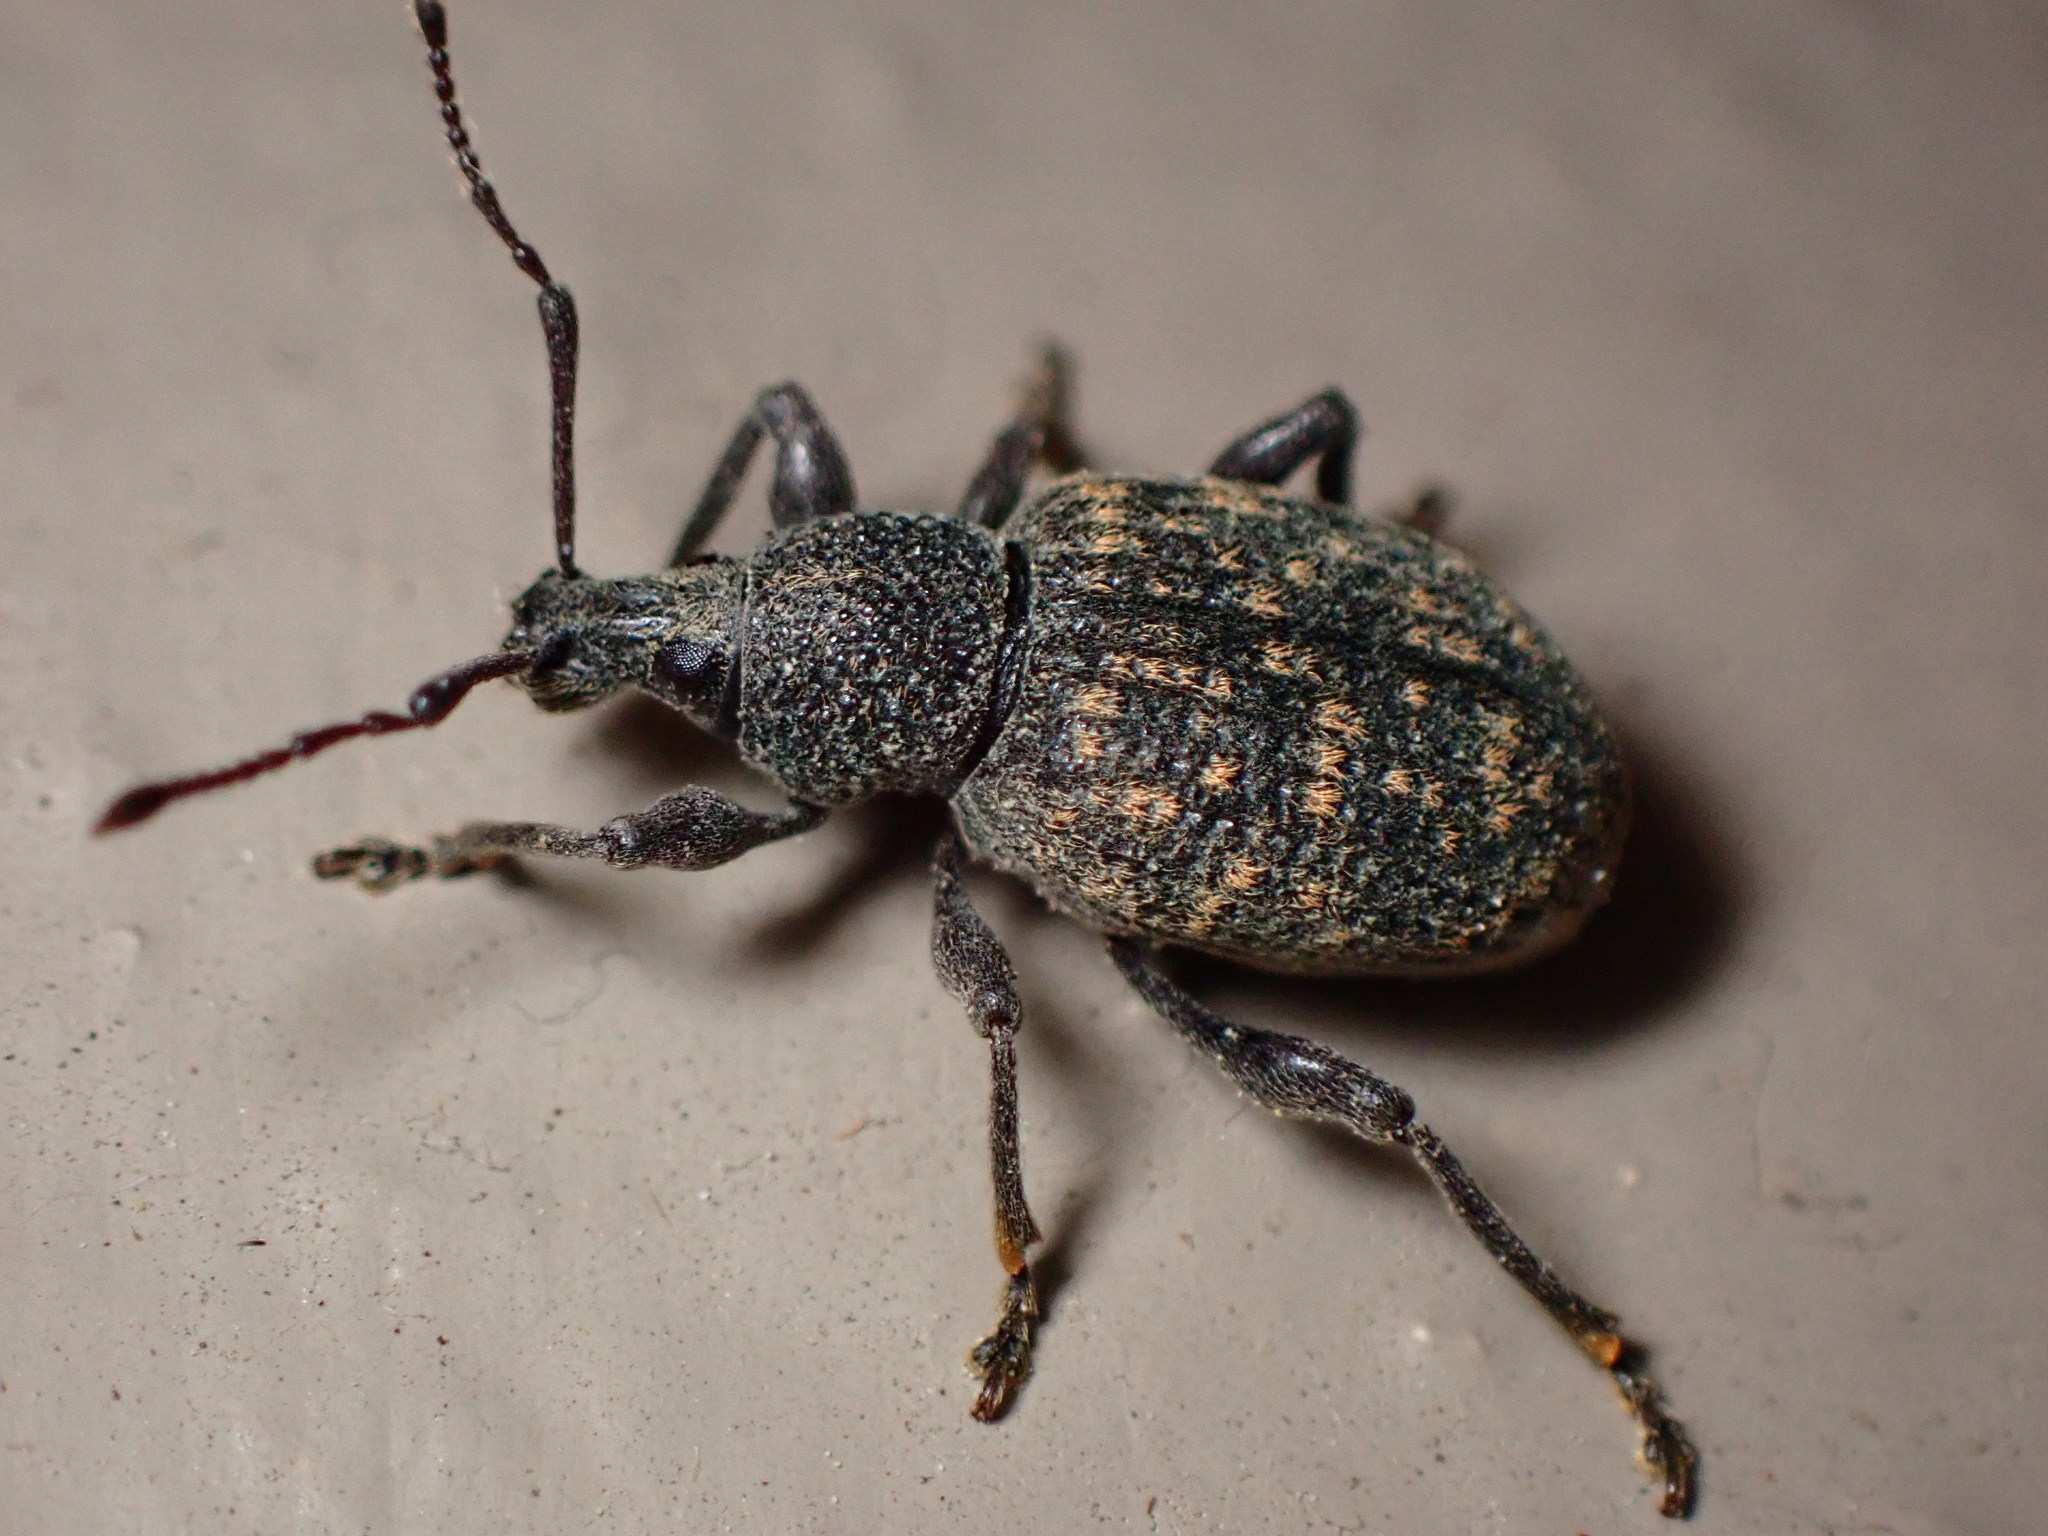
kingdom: Animalia
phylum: Arthropoda
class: Insecta
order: Coleoptera
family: Curculionidae
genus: Otiorhynchus
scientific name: Otiorhynchus sulcatus
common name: Black vine weevil
